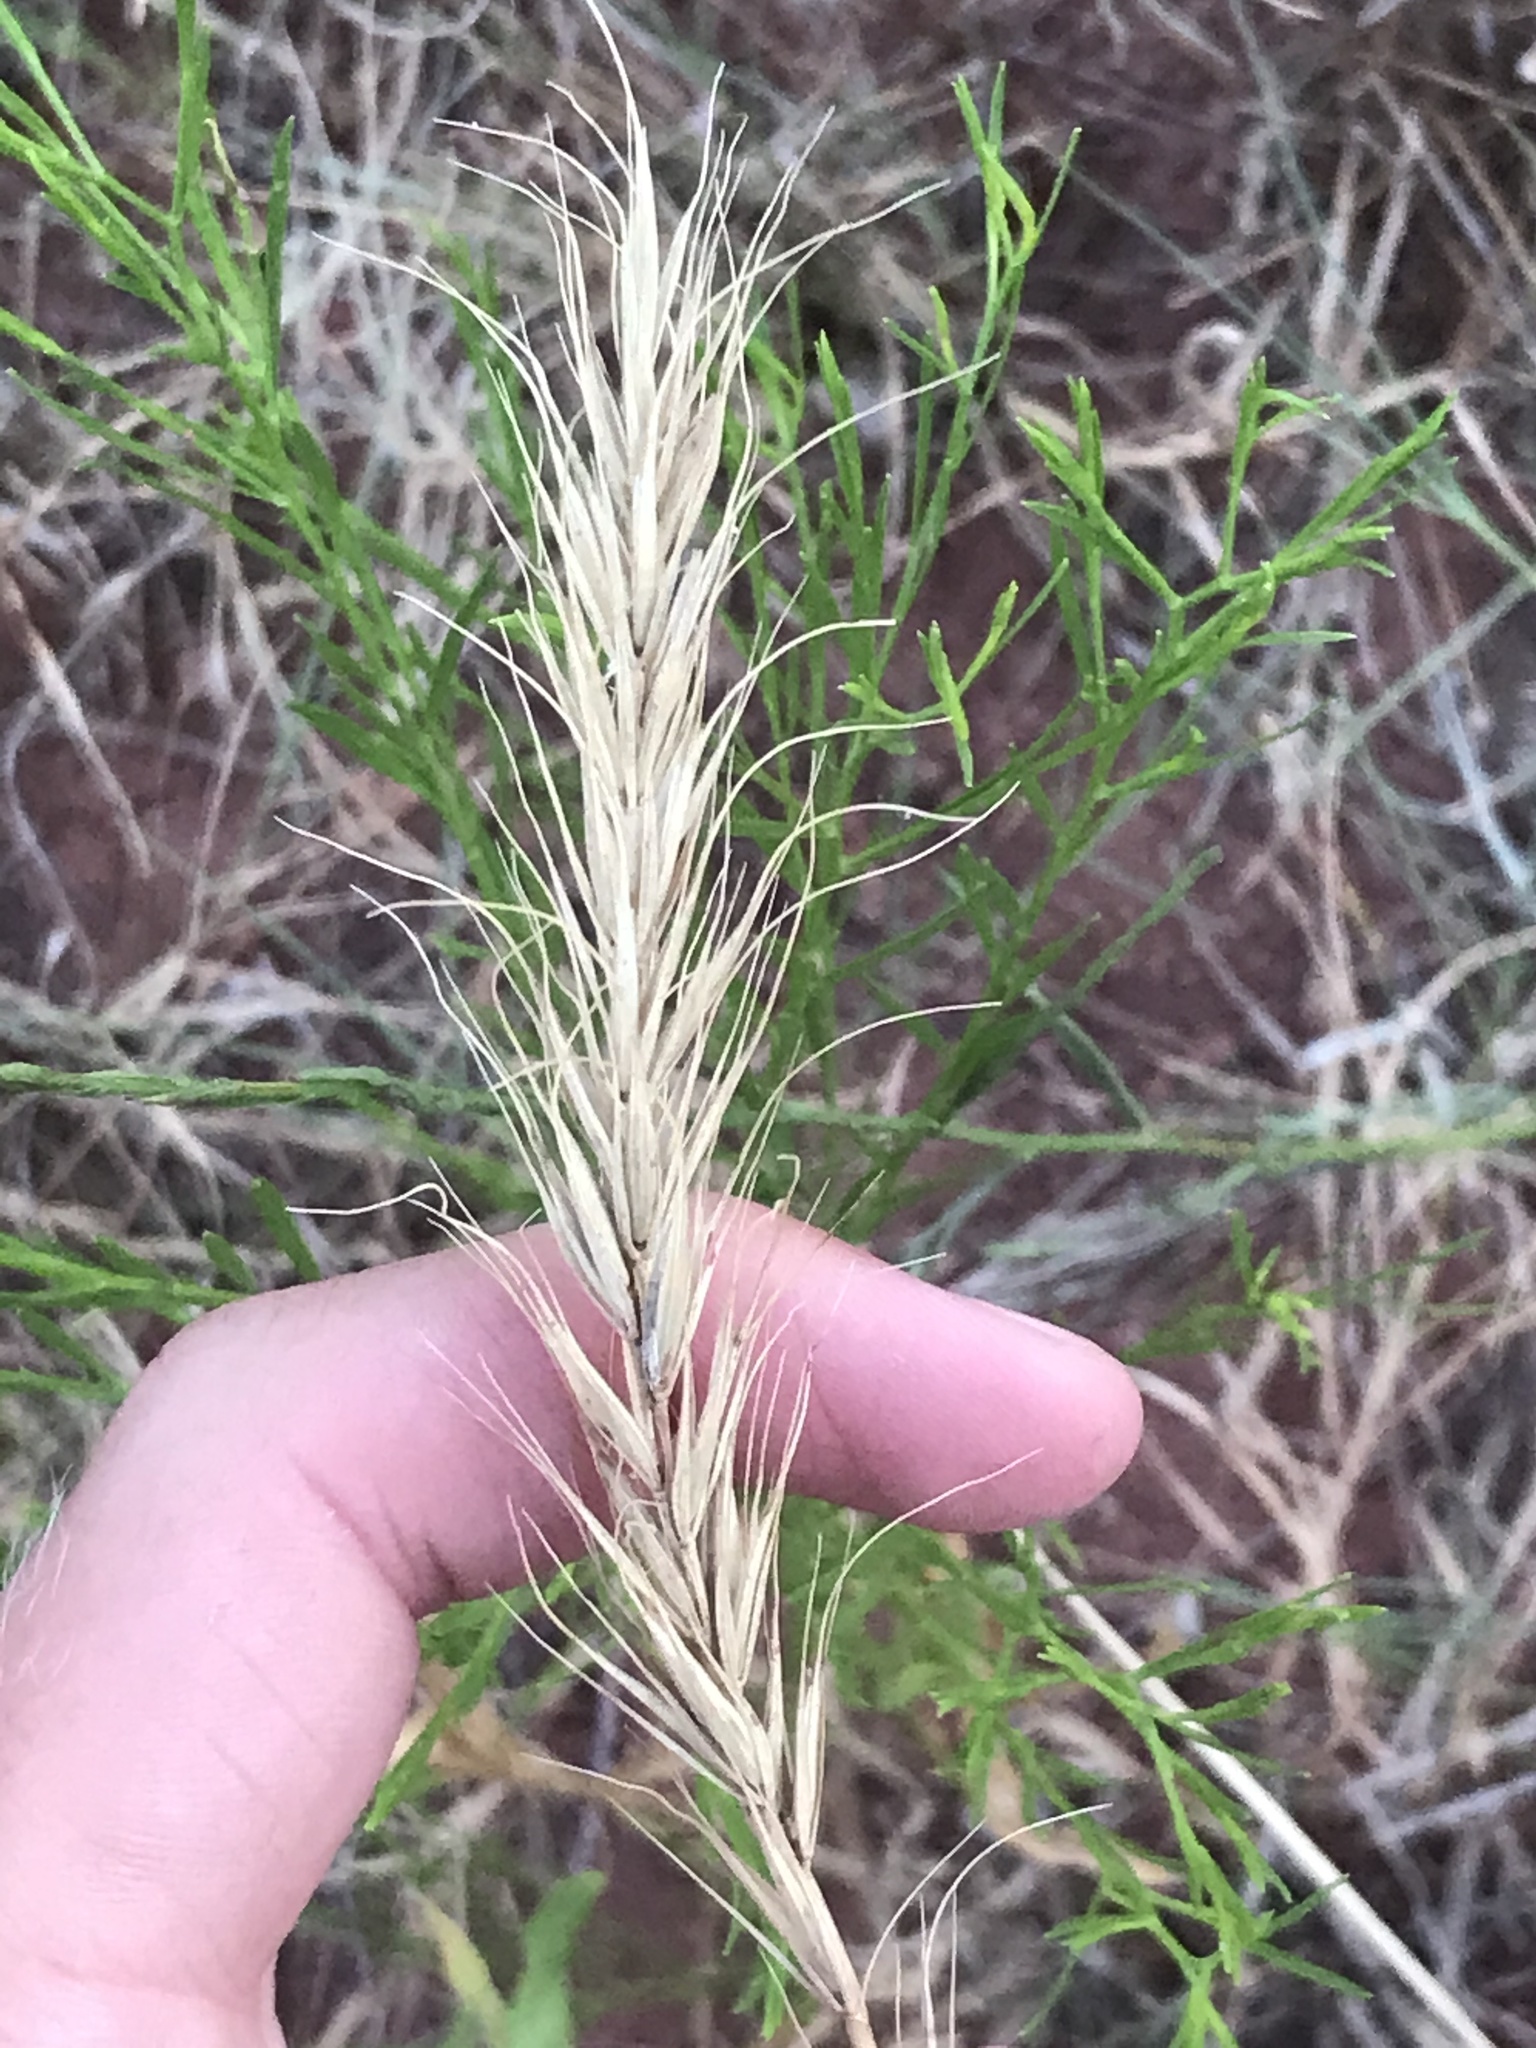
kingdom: Plantae
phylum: Tracheophyta
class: Liliopsida
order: Poales
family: Poaceae
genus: Elymus
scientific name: Elymus canadensis
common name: Canada wild rye
